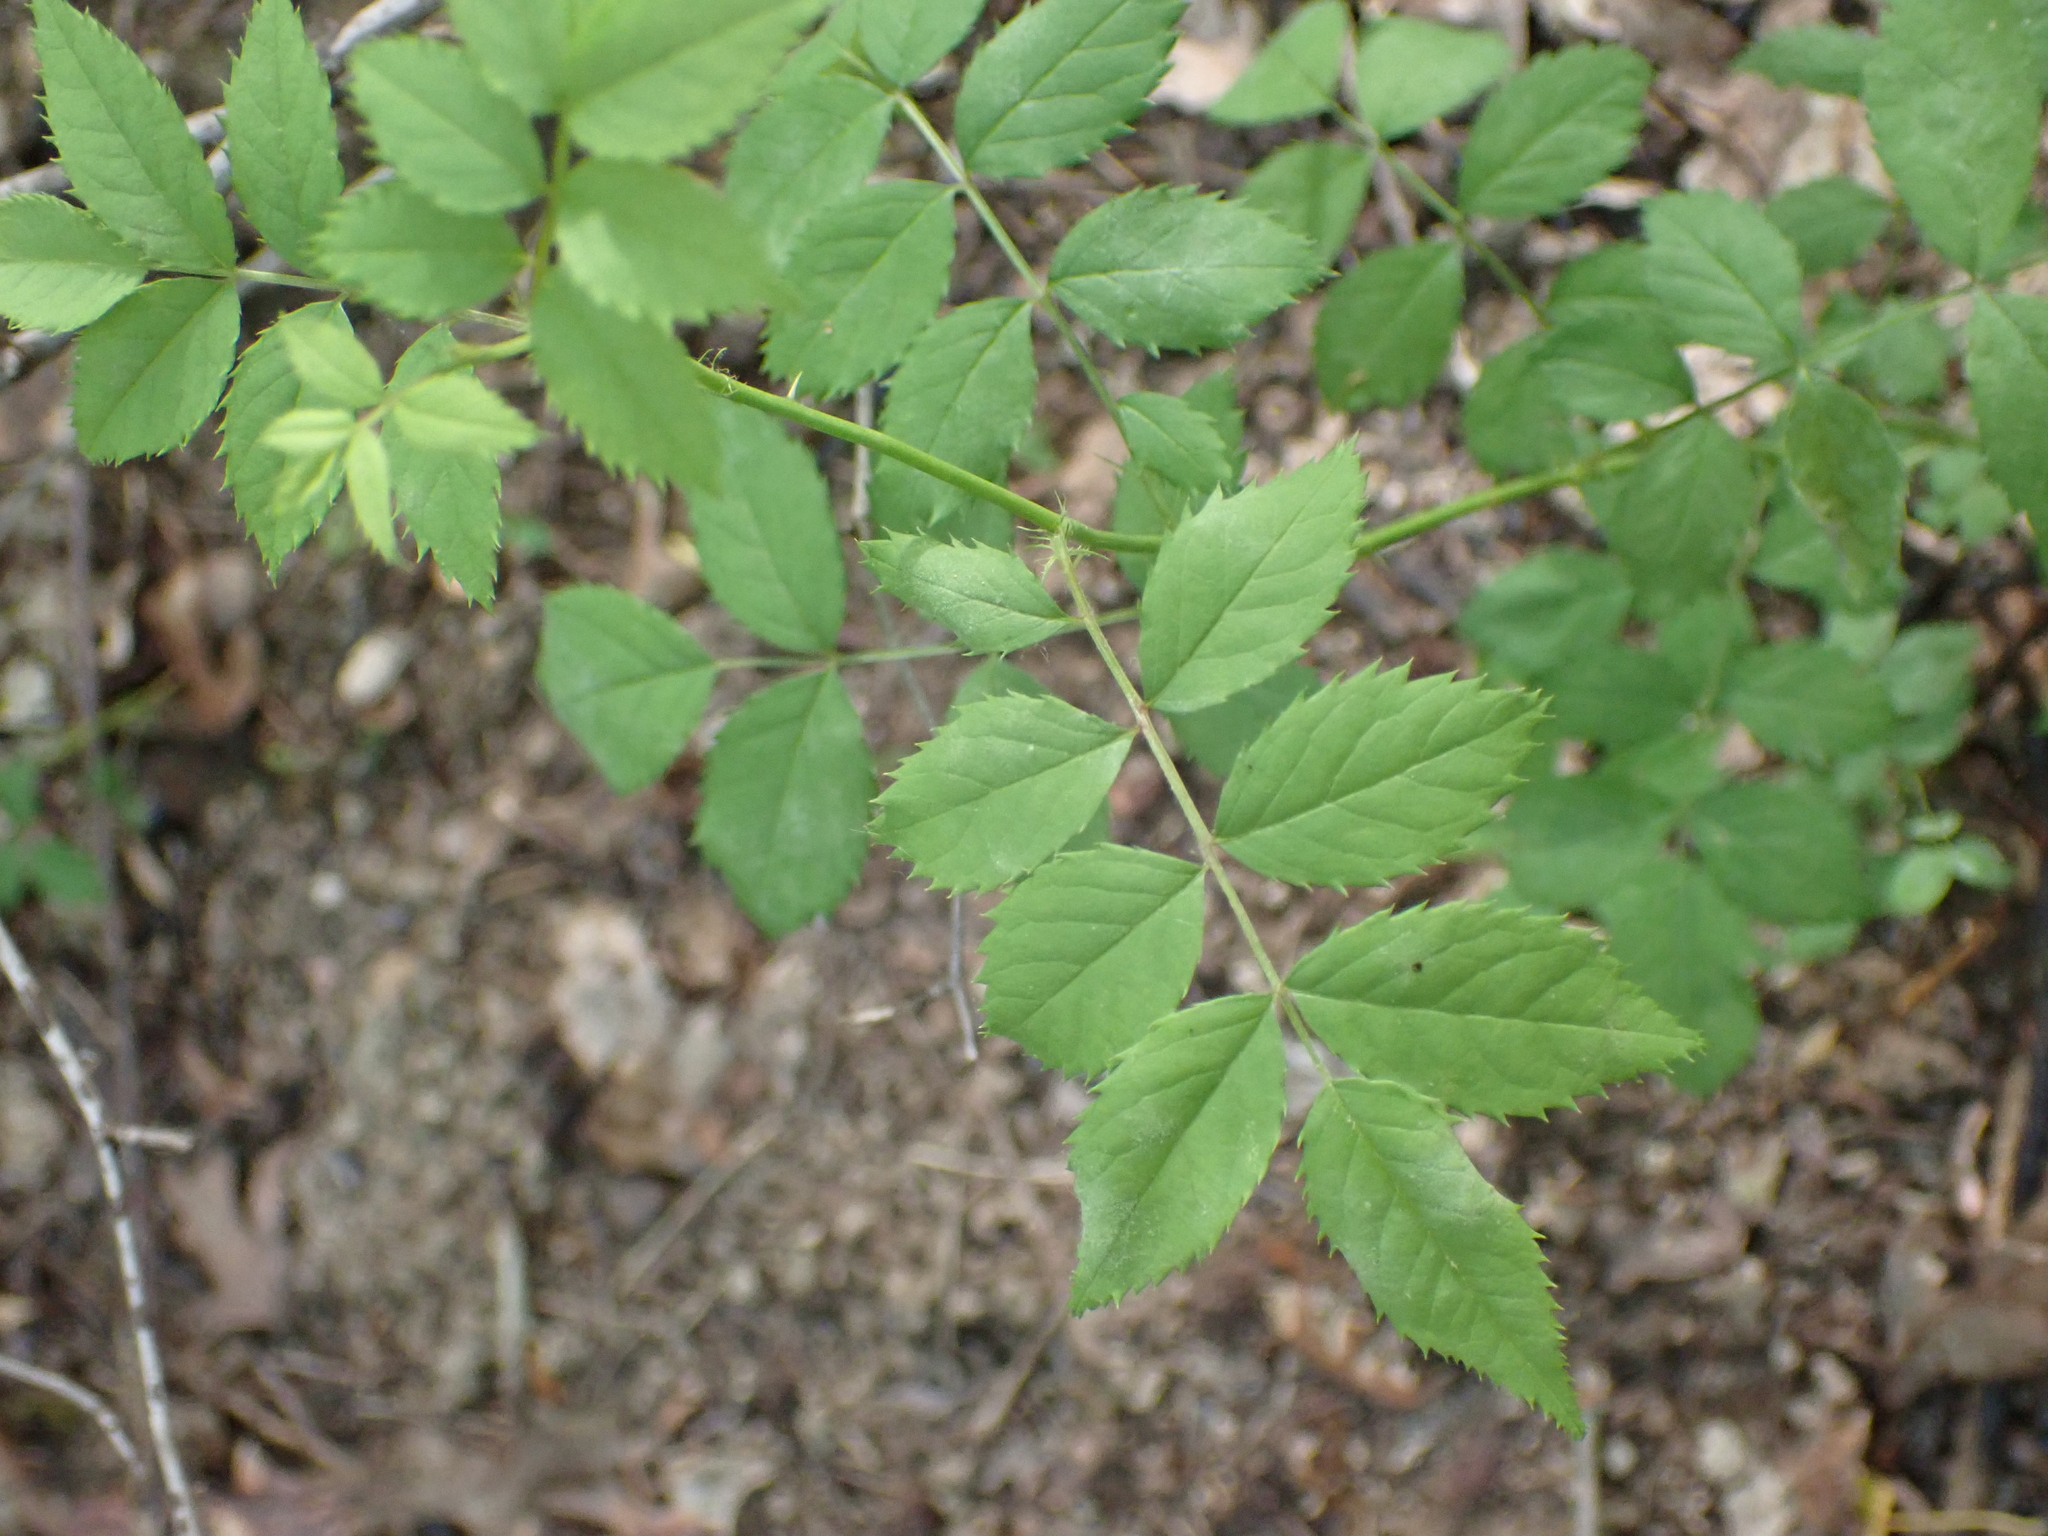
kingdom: Plantae
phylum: Tracheophyta
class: Magnoliopsida
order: Rosales
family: Rosaceae
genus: Rosa
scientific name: Rosa multiflora
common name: Multiflora rose
